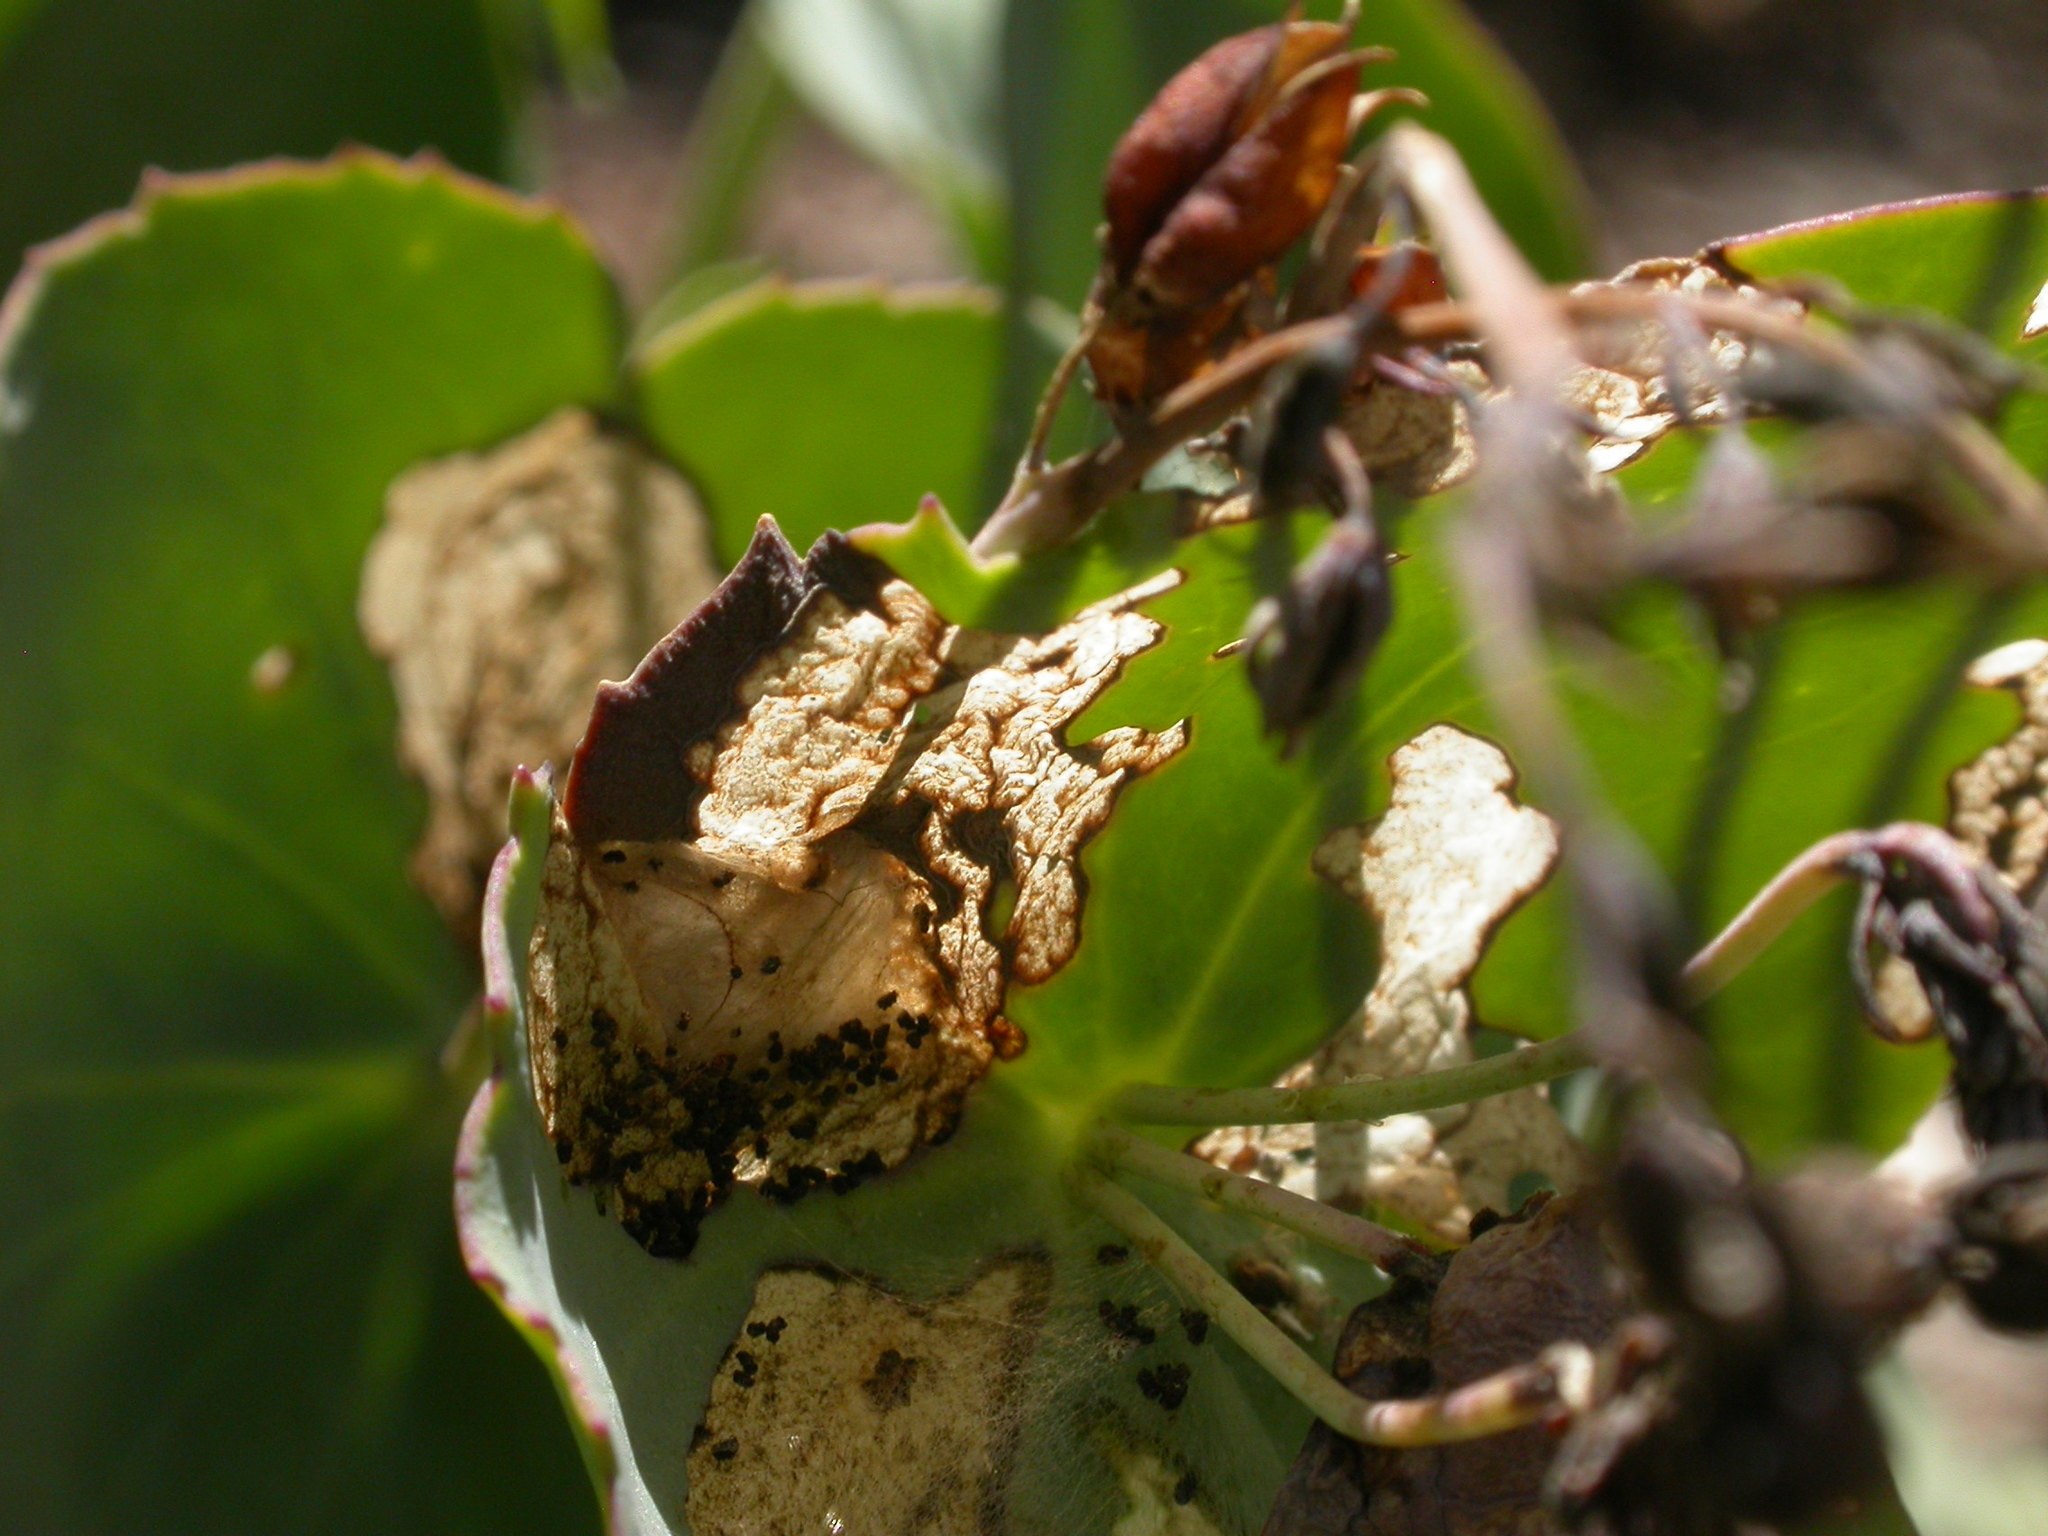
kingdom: Animalia
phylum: Arthropoda
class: Insecta
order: Lepidoptera
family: Pterophoridae
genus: Sinpunctiptilia
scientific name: Sinpunctiptilia emissalis
